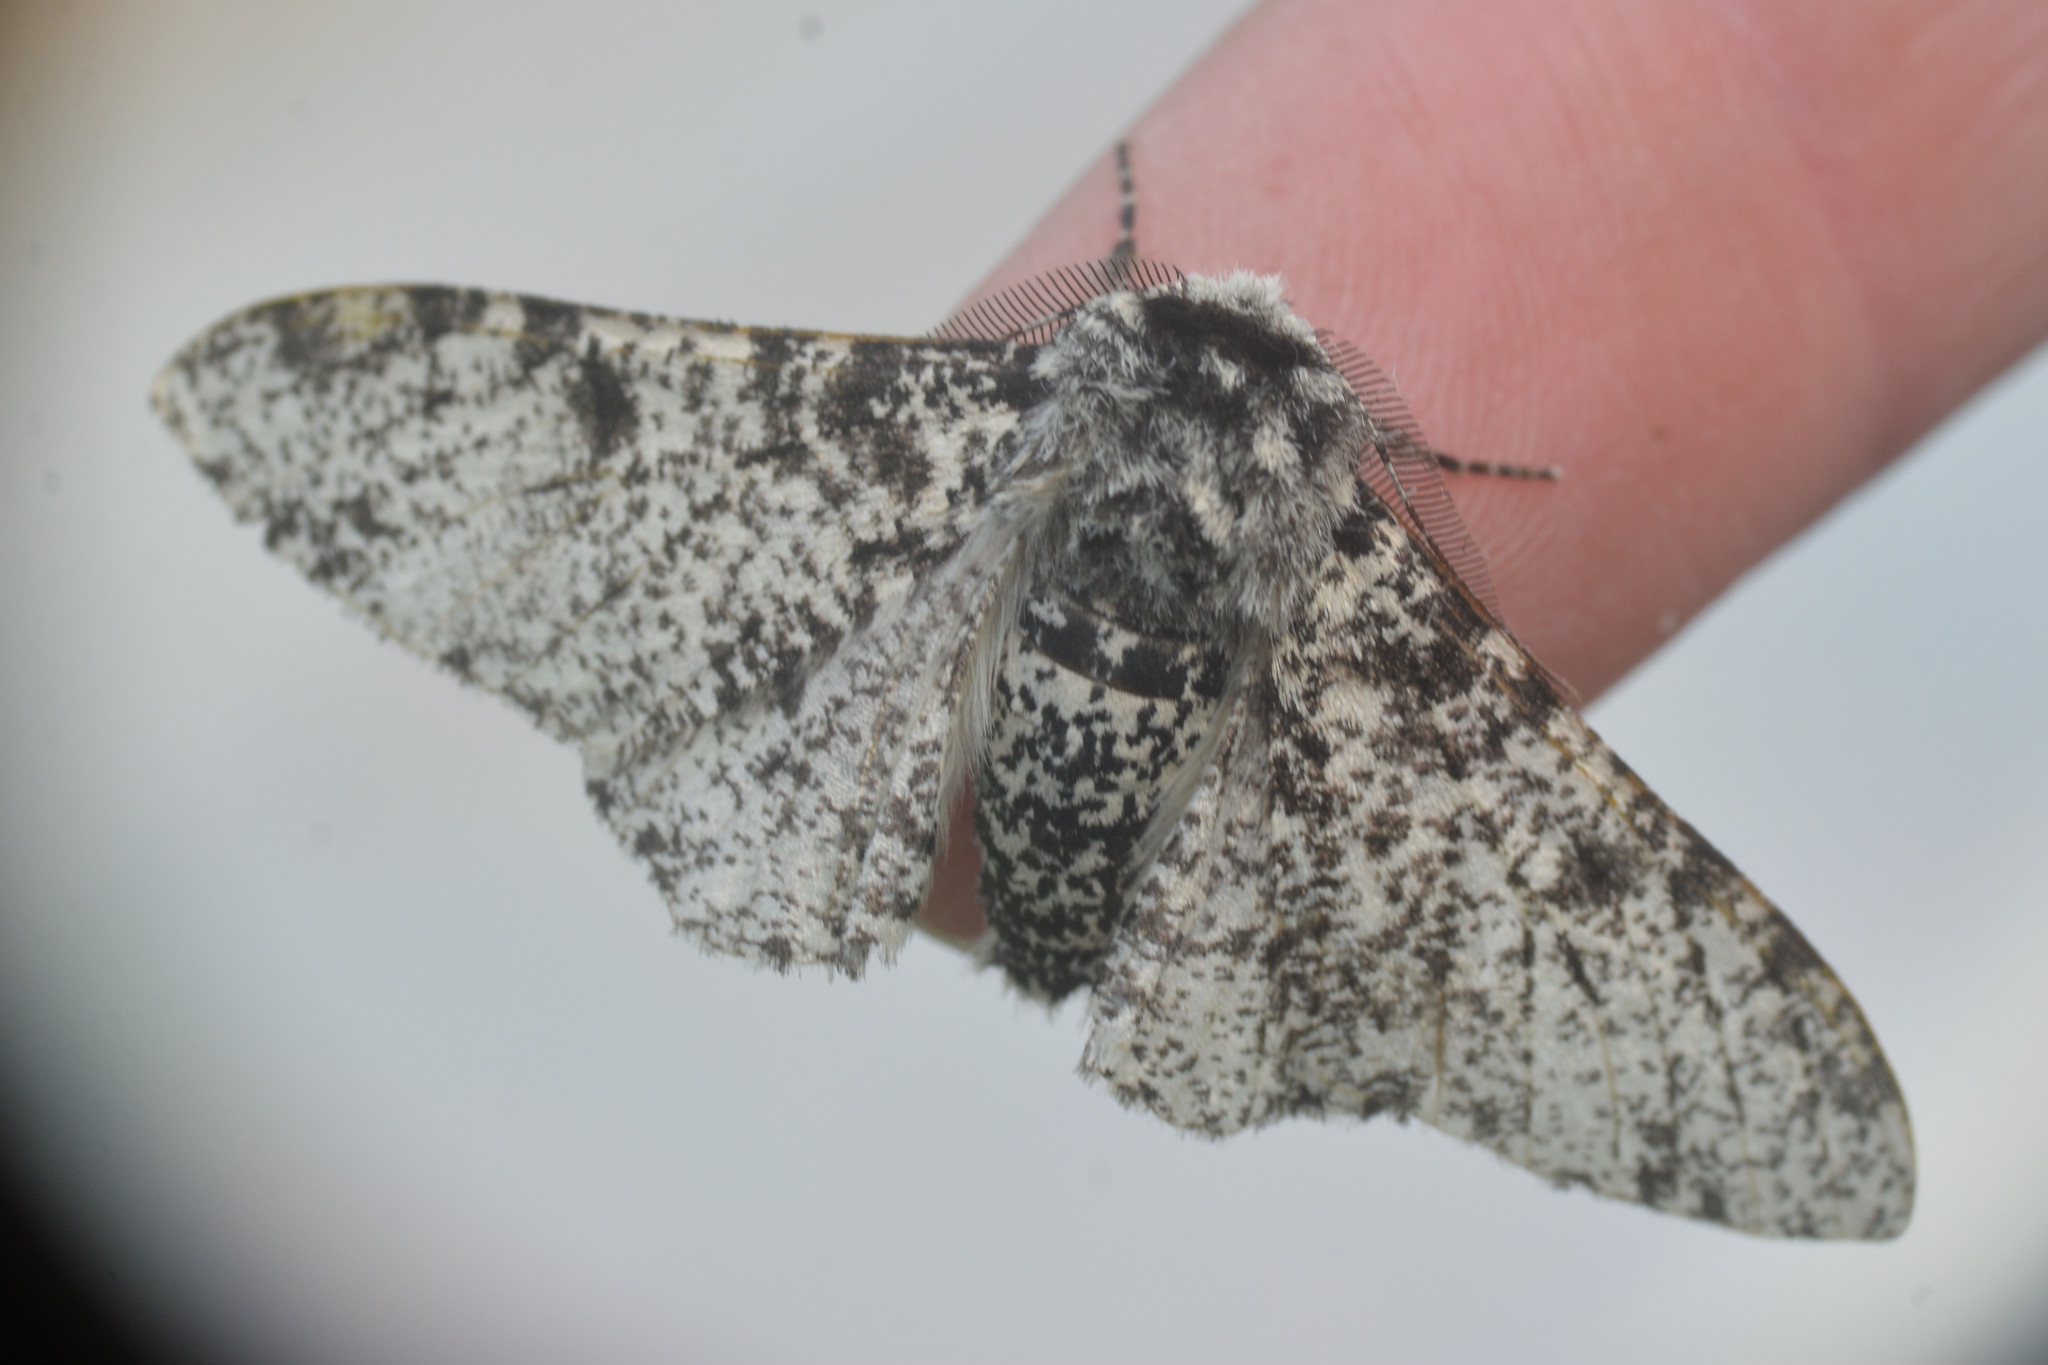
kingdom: Animalia
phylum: Arthropoda
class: Insecta
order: Lepidoptera
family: Geometridae
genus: Biston
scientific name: Biston betularia
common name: Peppered moth
